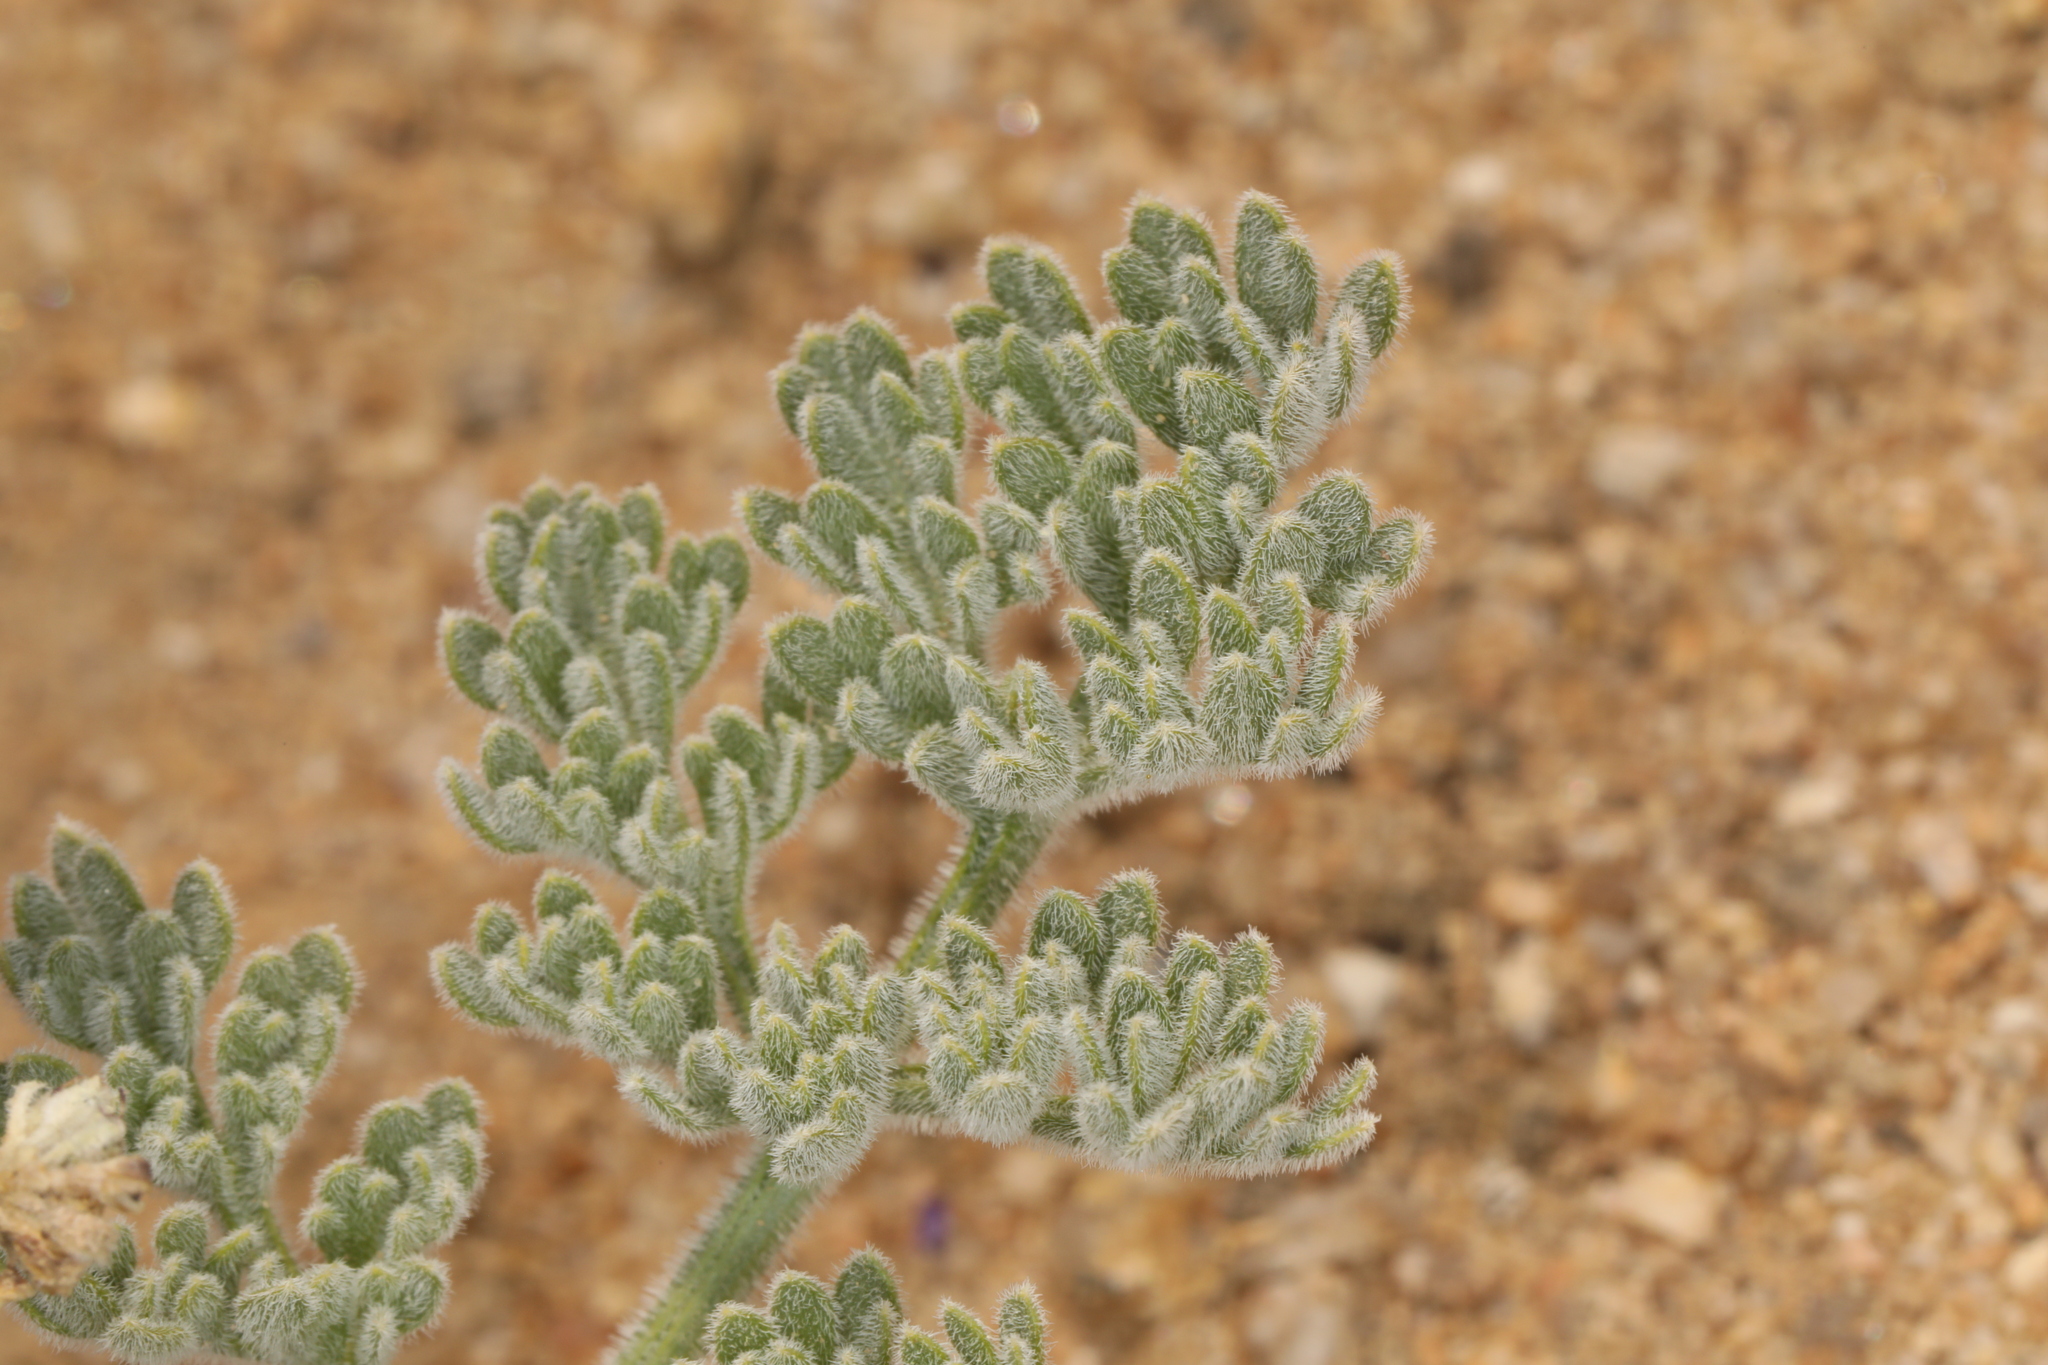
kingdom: Plantae
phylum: Tracheophyta
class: Magnoliopsida
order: Apiales
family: Apiaceae
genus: Lomatium
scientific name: Lomatium mohavense
